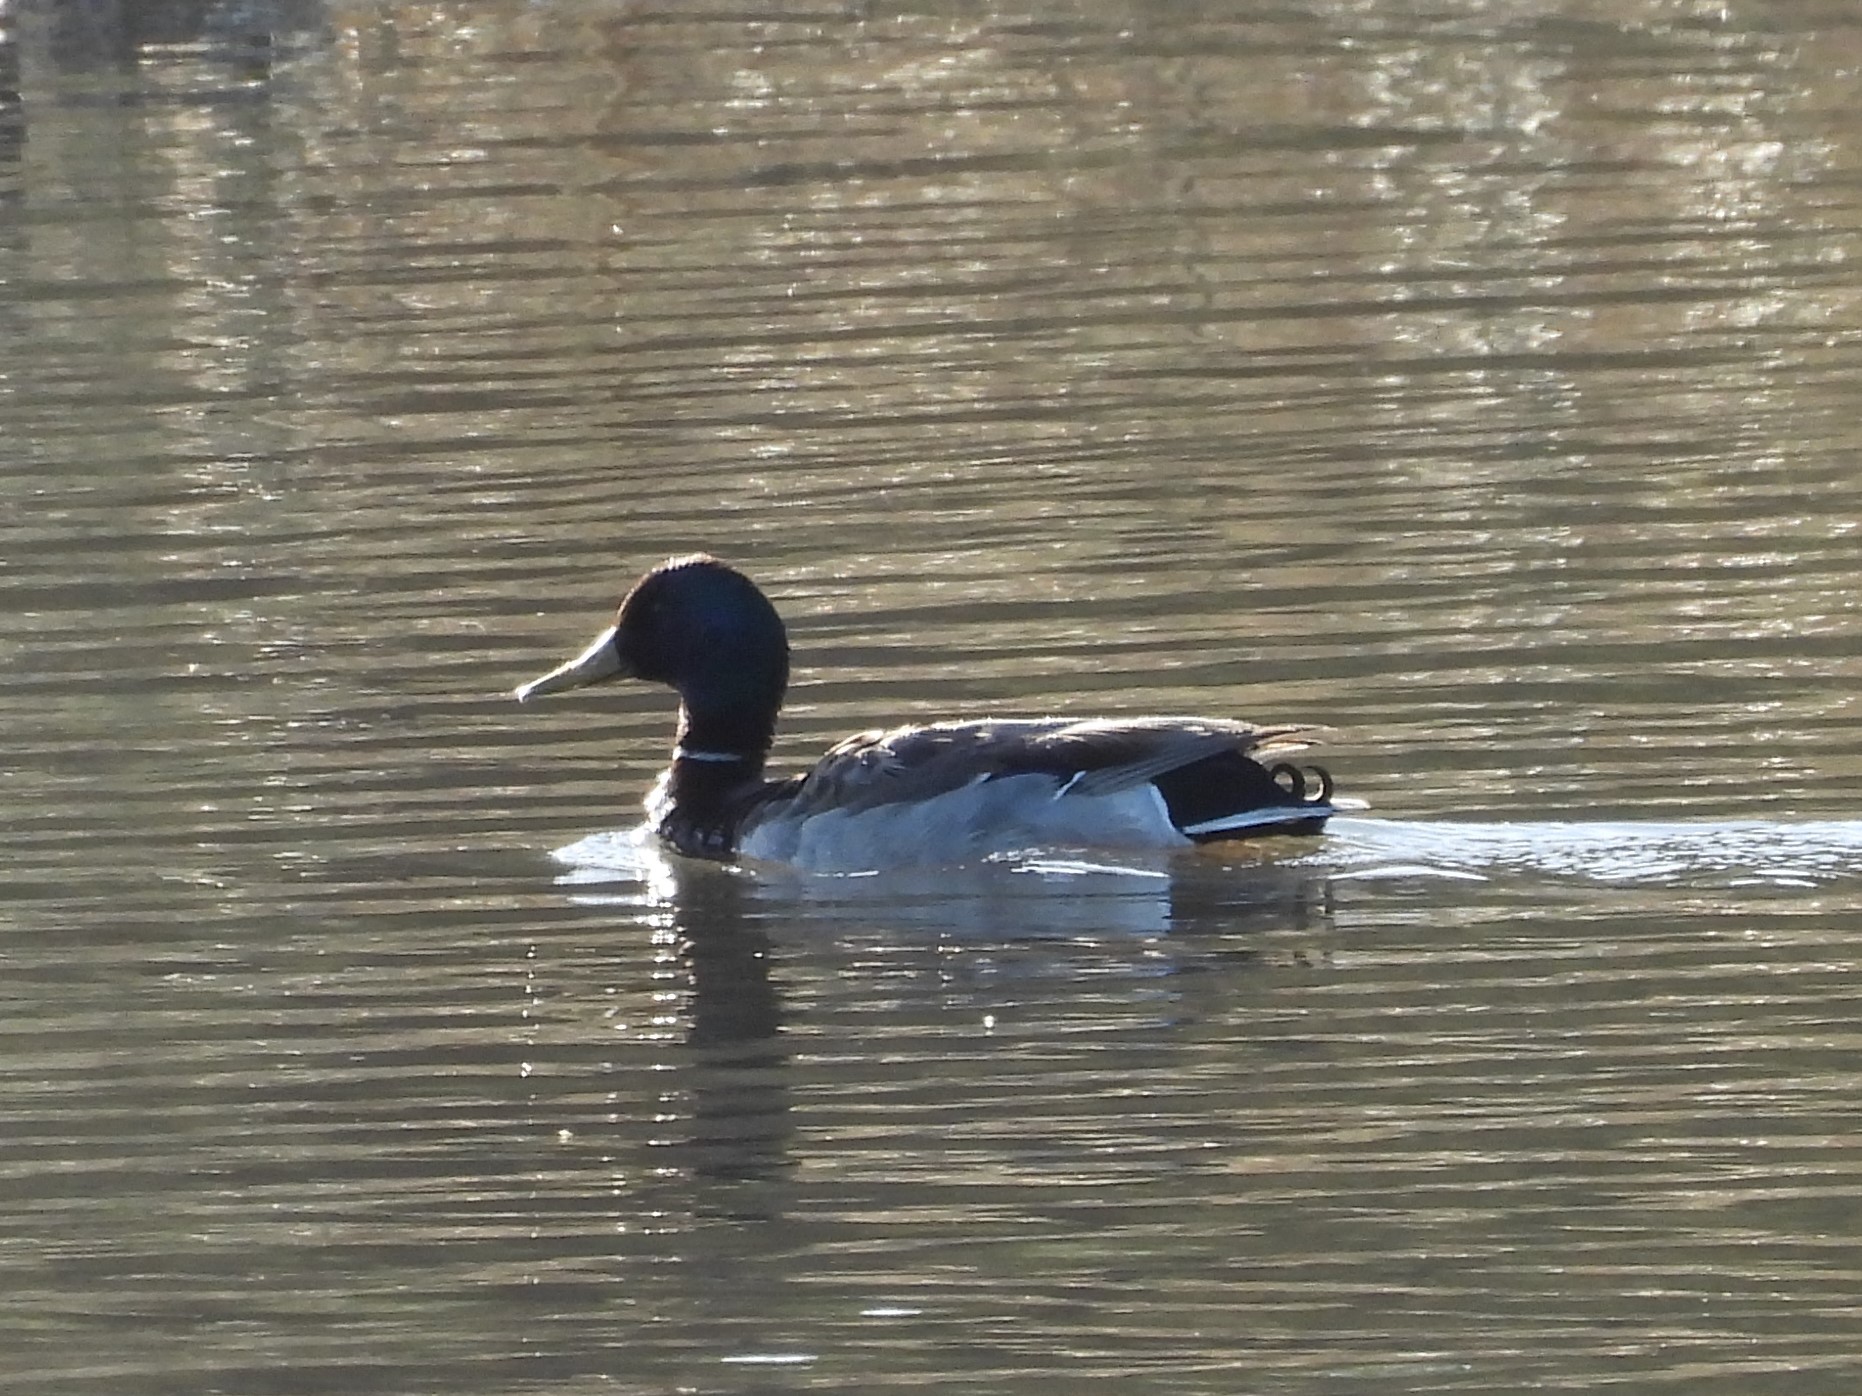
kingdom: Animalia
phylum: Chordata
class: Aves
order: Anseriformes
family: Anatidae
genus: Anas
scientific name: Anas platyrhynchos
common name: Mallard
